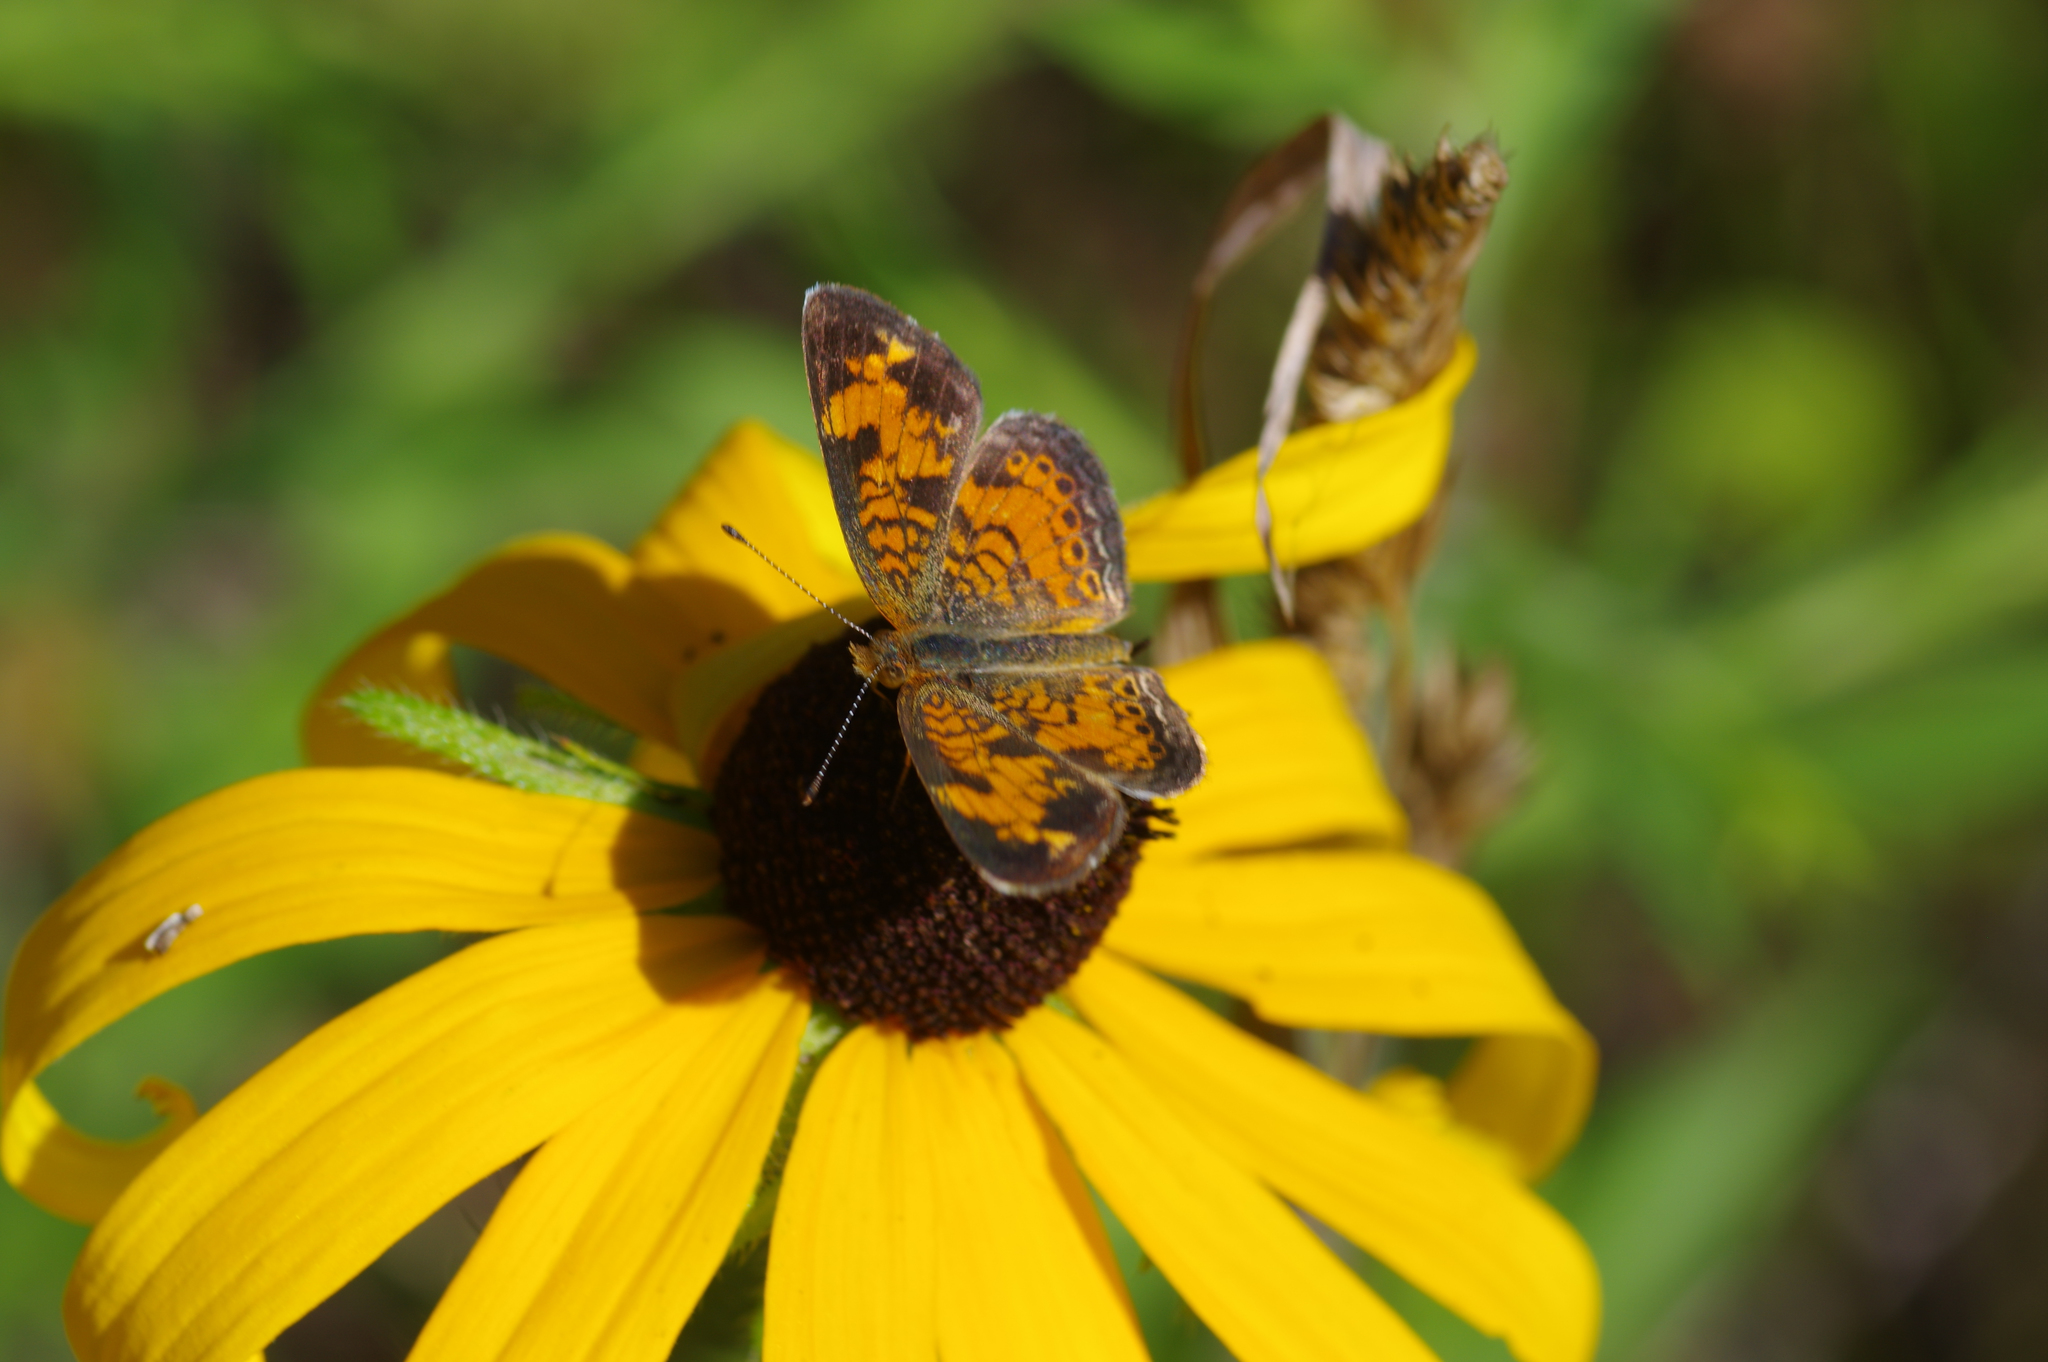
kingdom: Animalia
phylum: Arthropoda
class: Insecta
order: Lepidoptera
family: Nymphalidae
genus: Phyciodes
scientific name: Phyciodes tharos
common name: Pearl crescent
